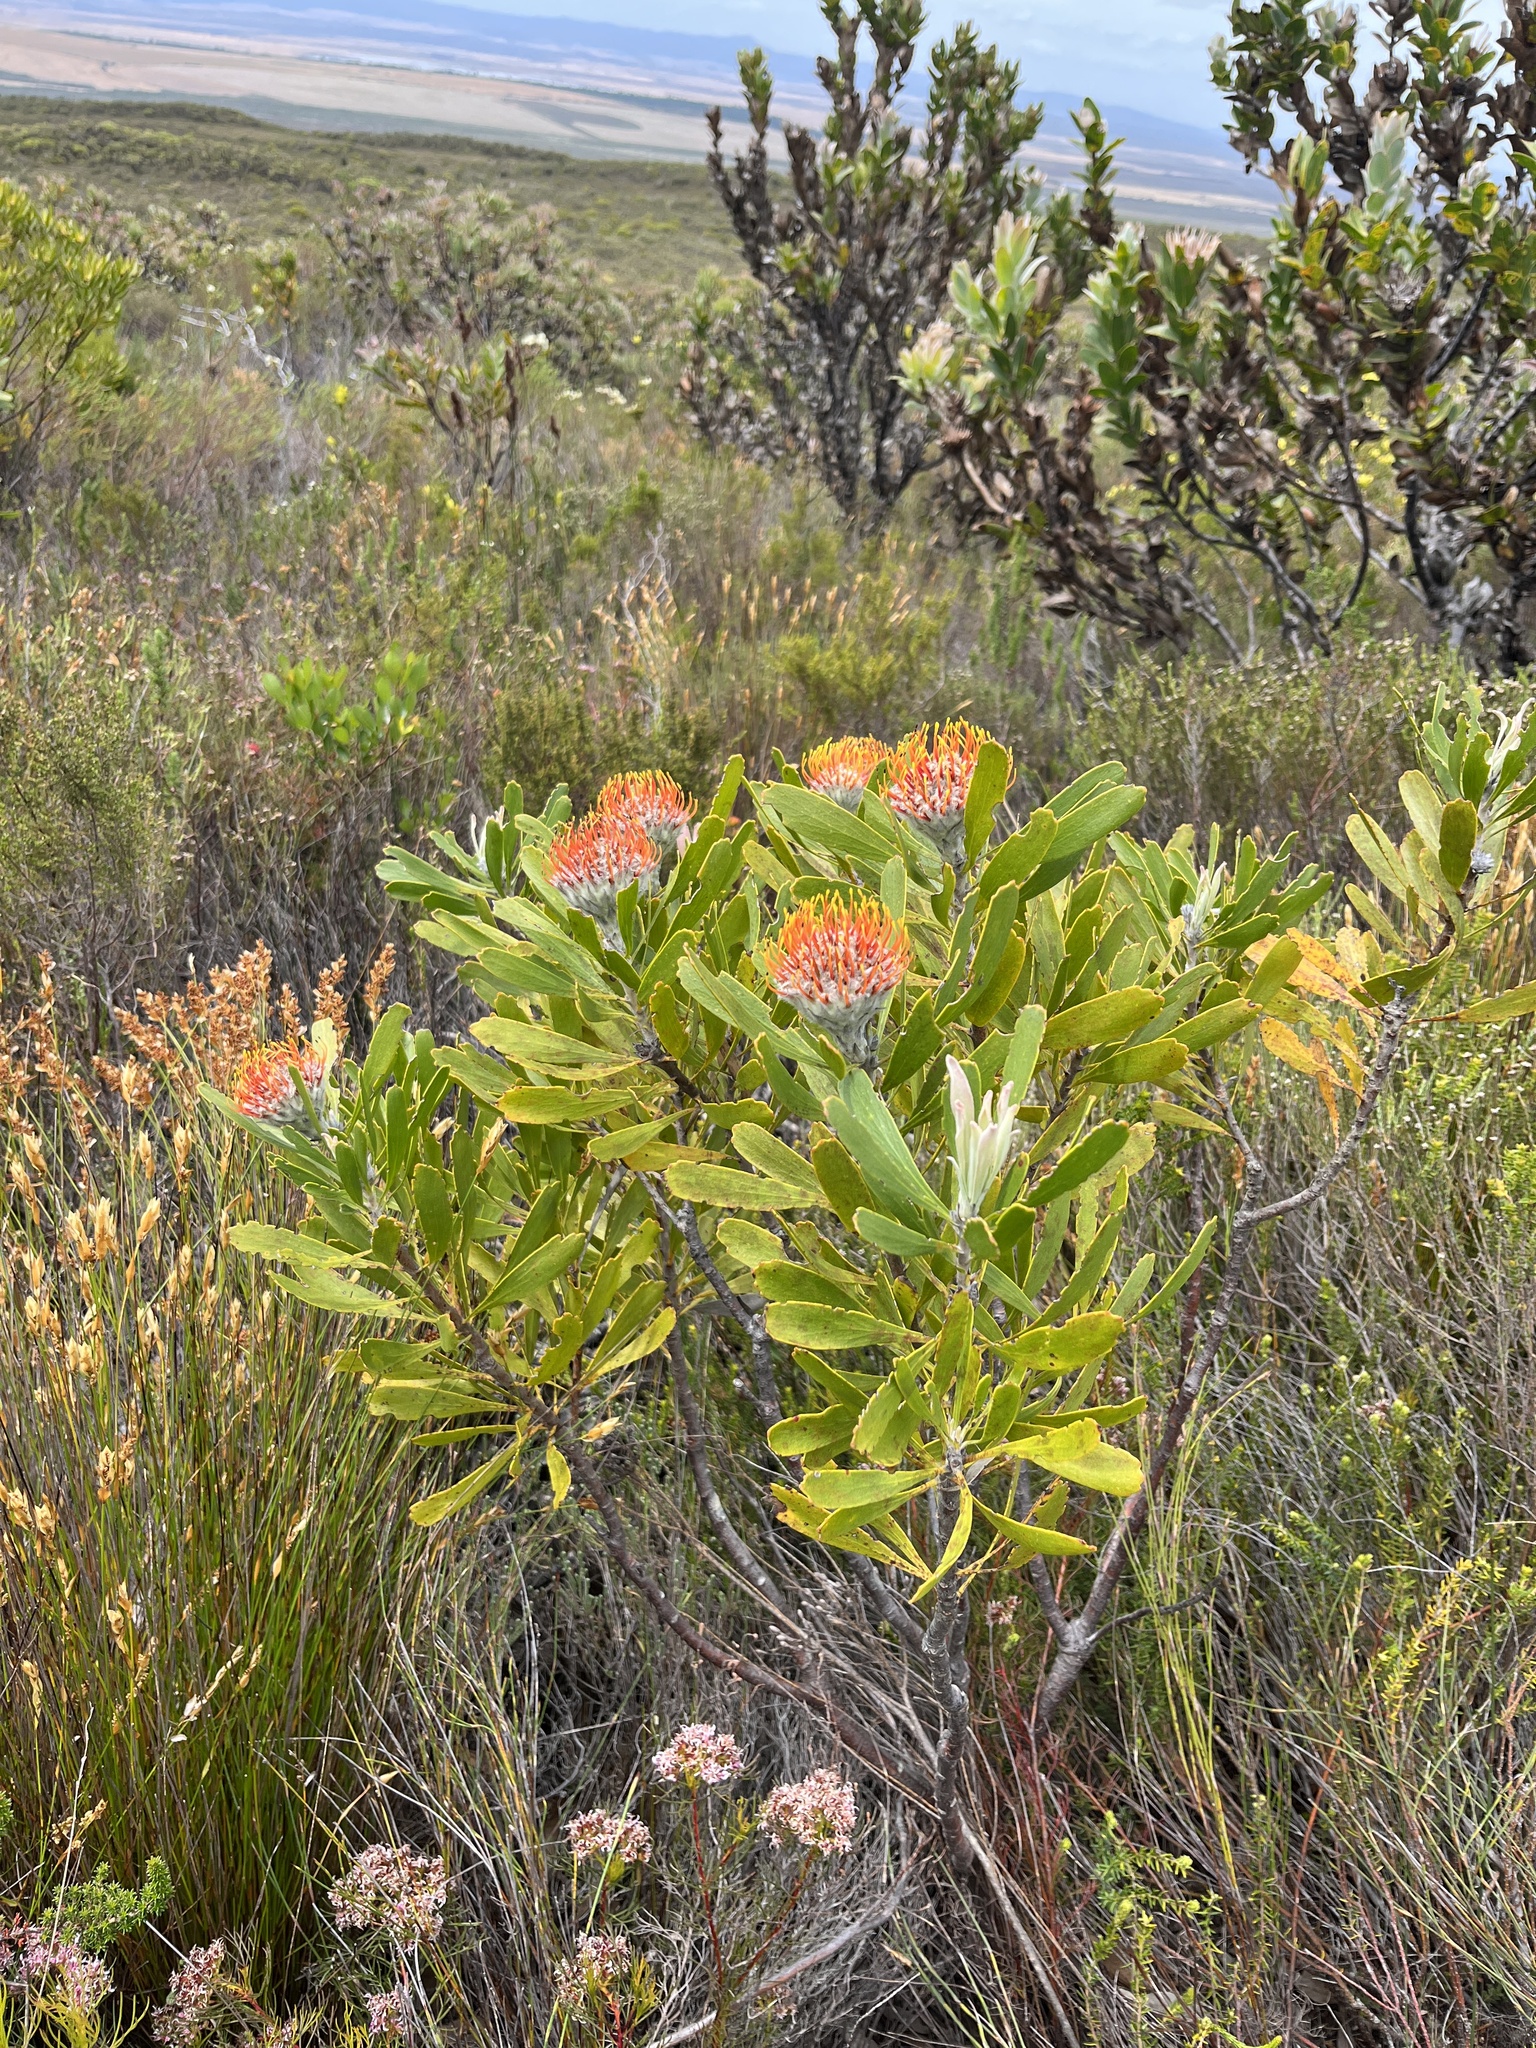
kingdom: Plantae
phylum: Tracheophyta
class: Magnoliopsida
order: Proteales
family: Proteaceae
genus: Leucospermum
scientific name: Leucospermum truncatum
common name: Limestone pincushion
